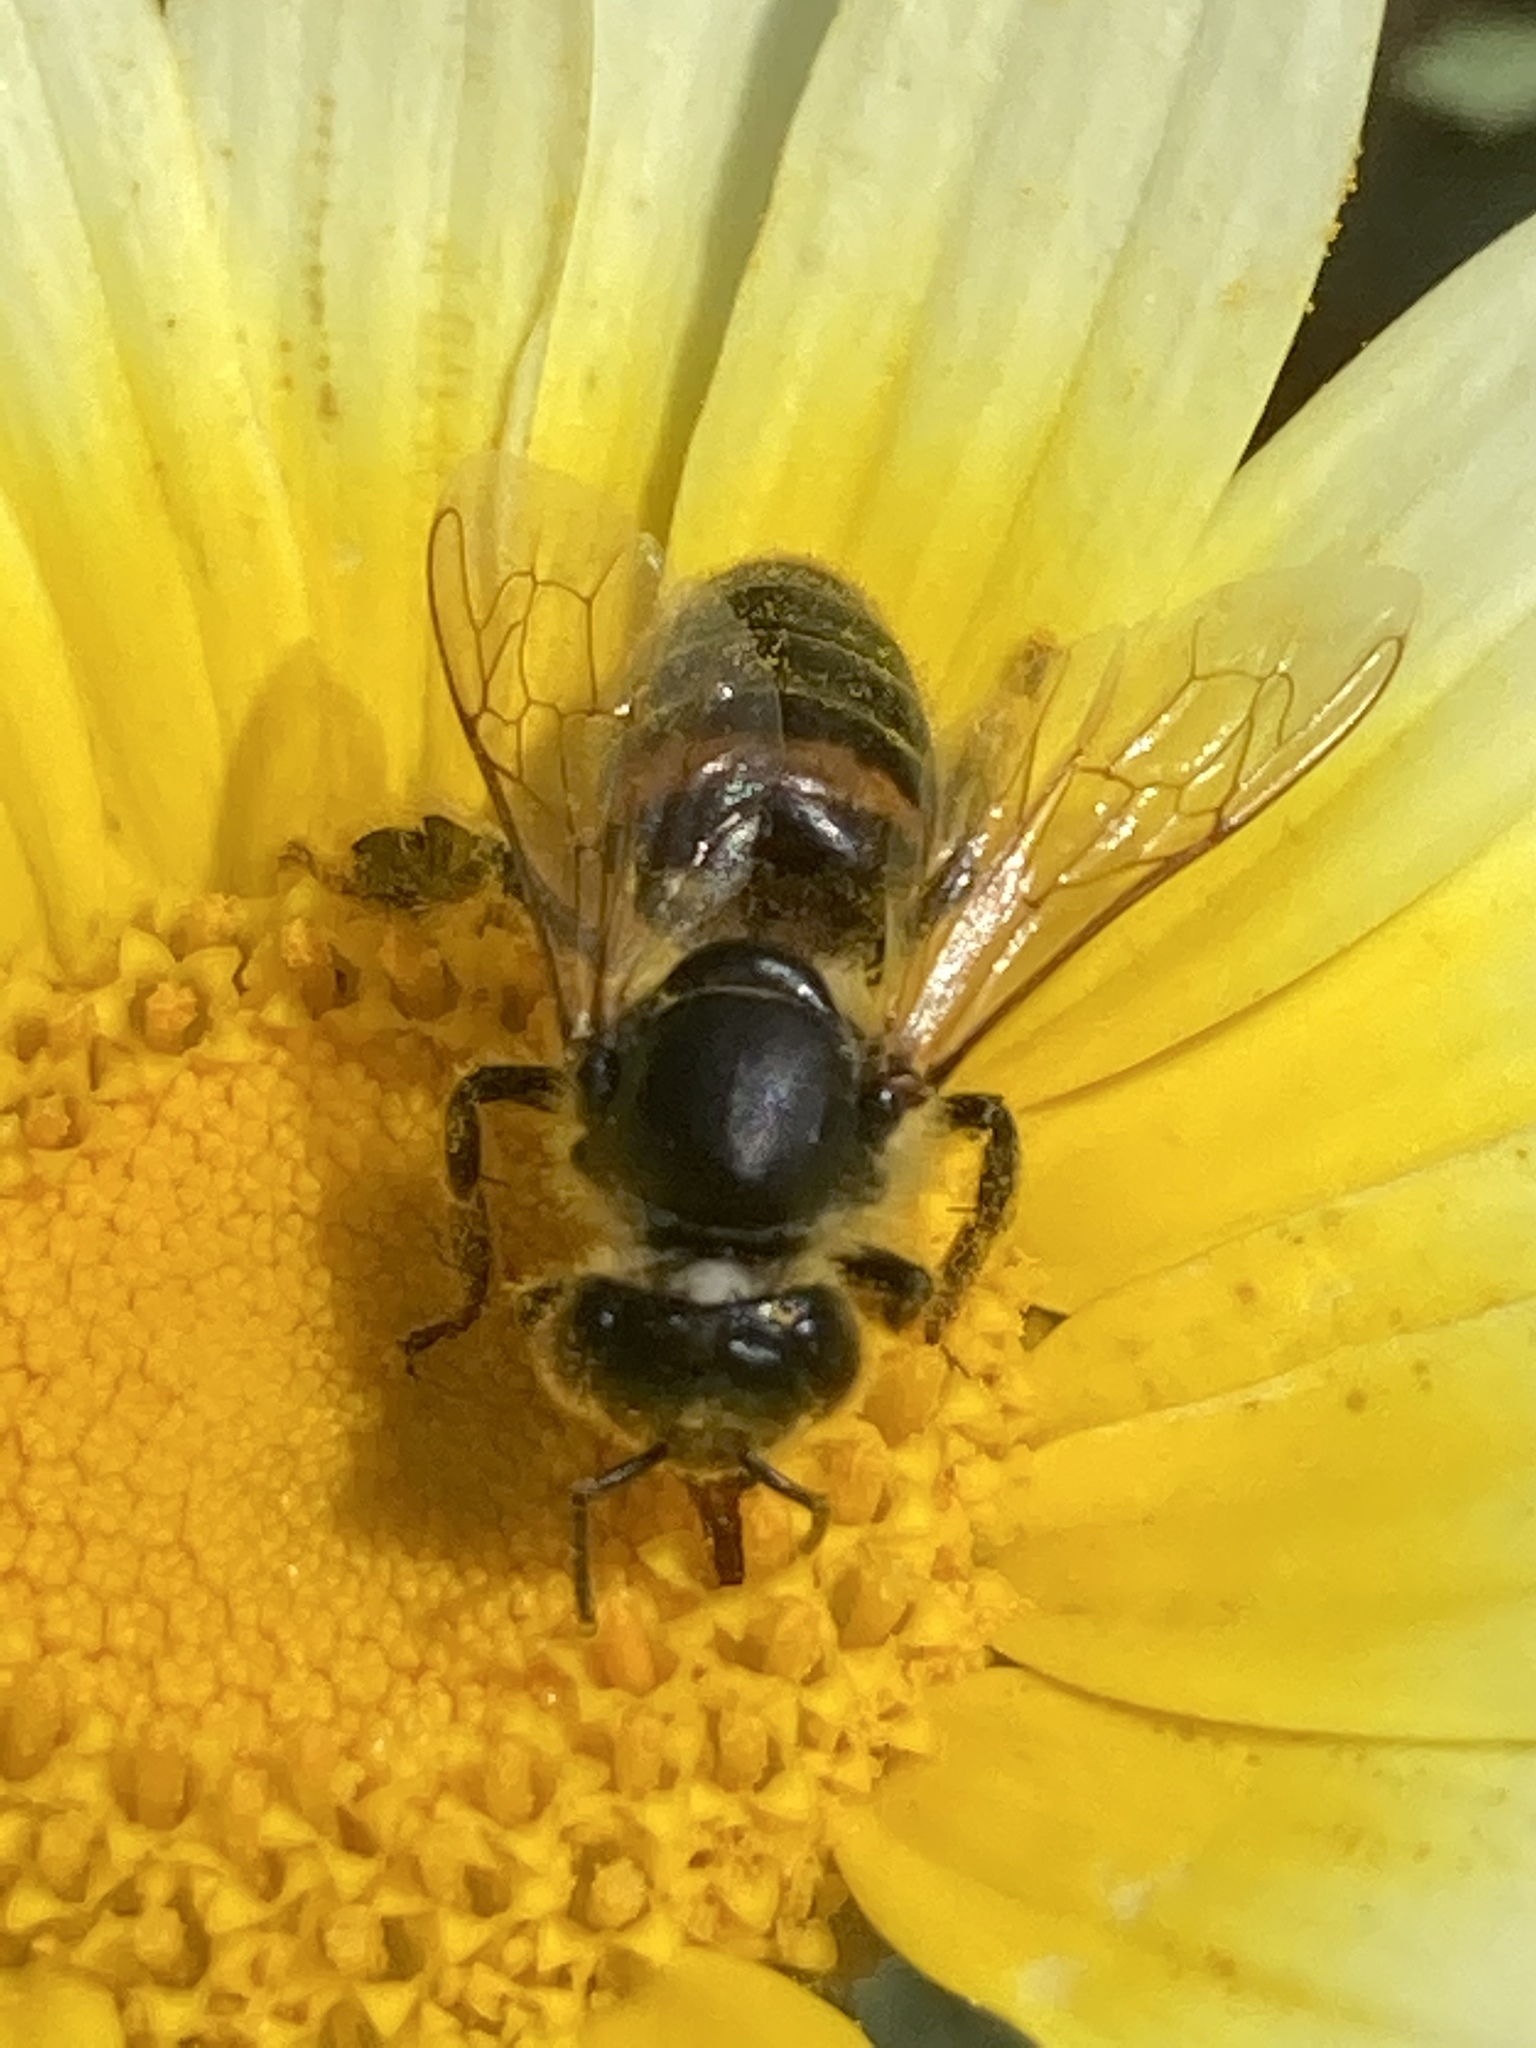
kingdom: Animalia
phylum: Arthropoda
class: Insecta
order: Hymenoptera
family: Apidae
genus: Apis
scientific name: Apis mellifera
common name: Honey bee
